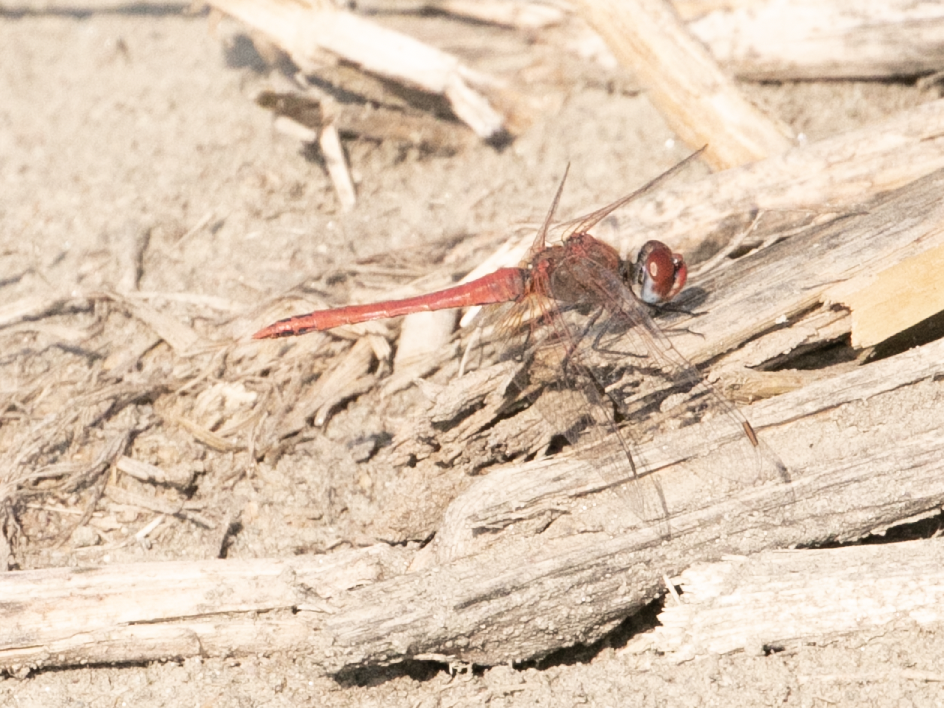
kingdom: Animalia
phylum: Arthropoda
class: Insecta
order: Odonata
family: Libellulidae
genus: Sympetrum
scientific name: Sympetrum fonscolombii
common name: Red-veined darter
